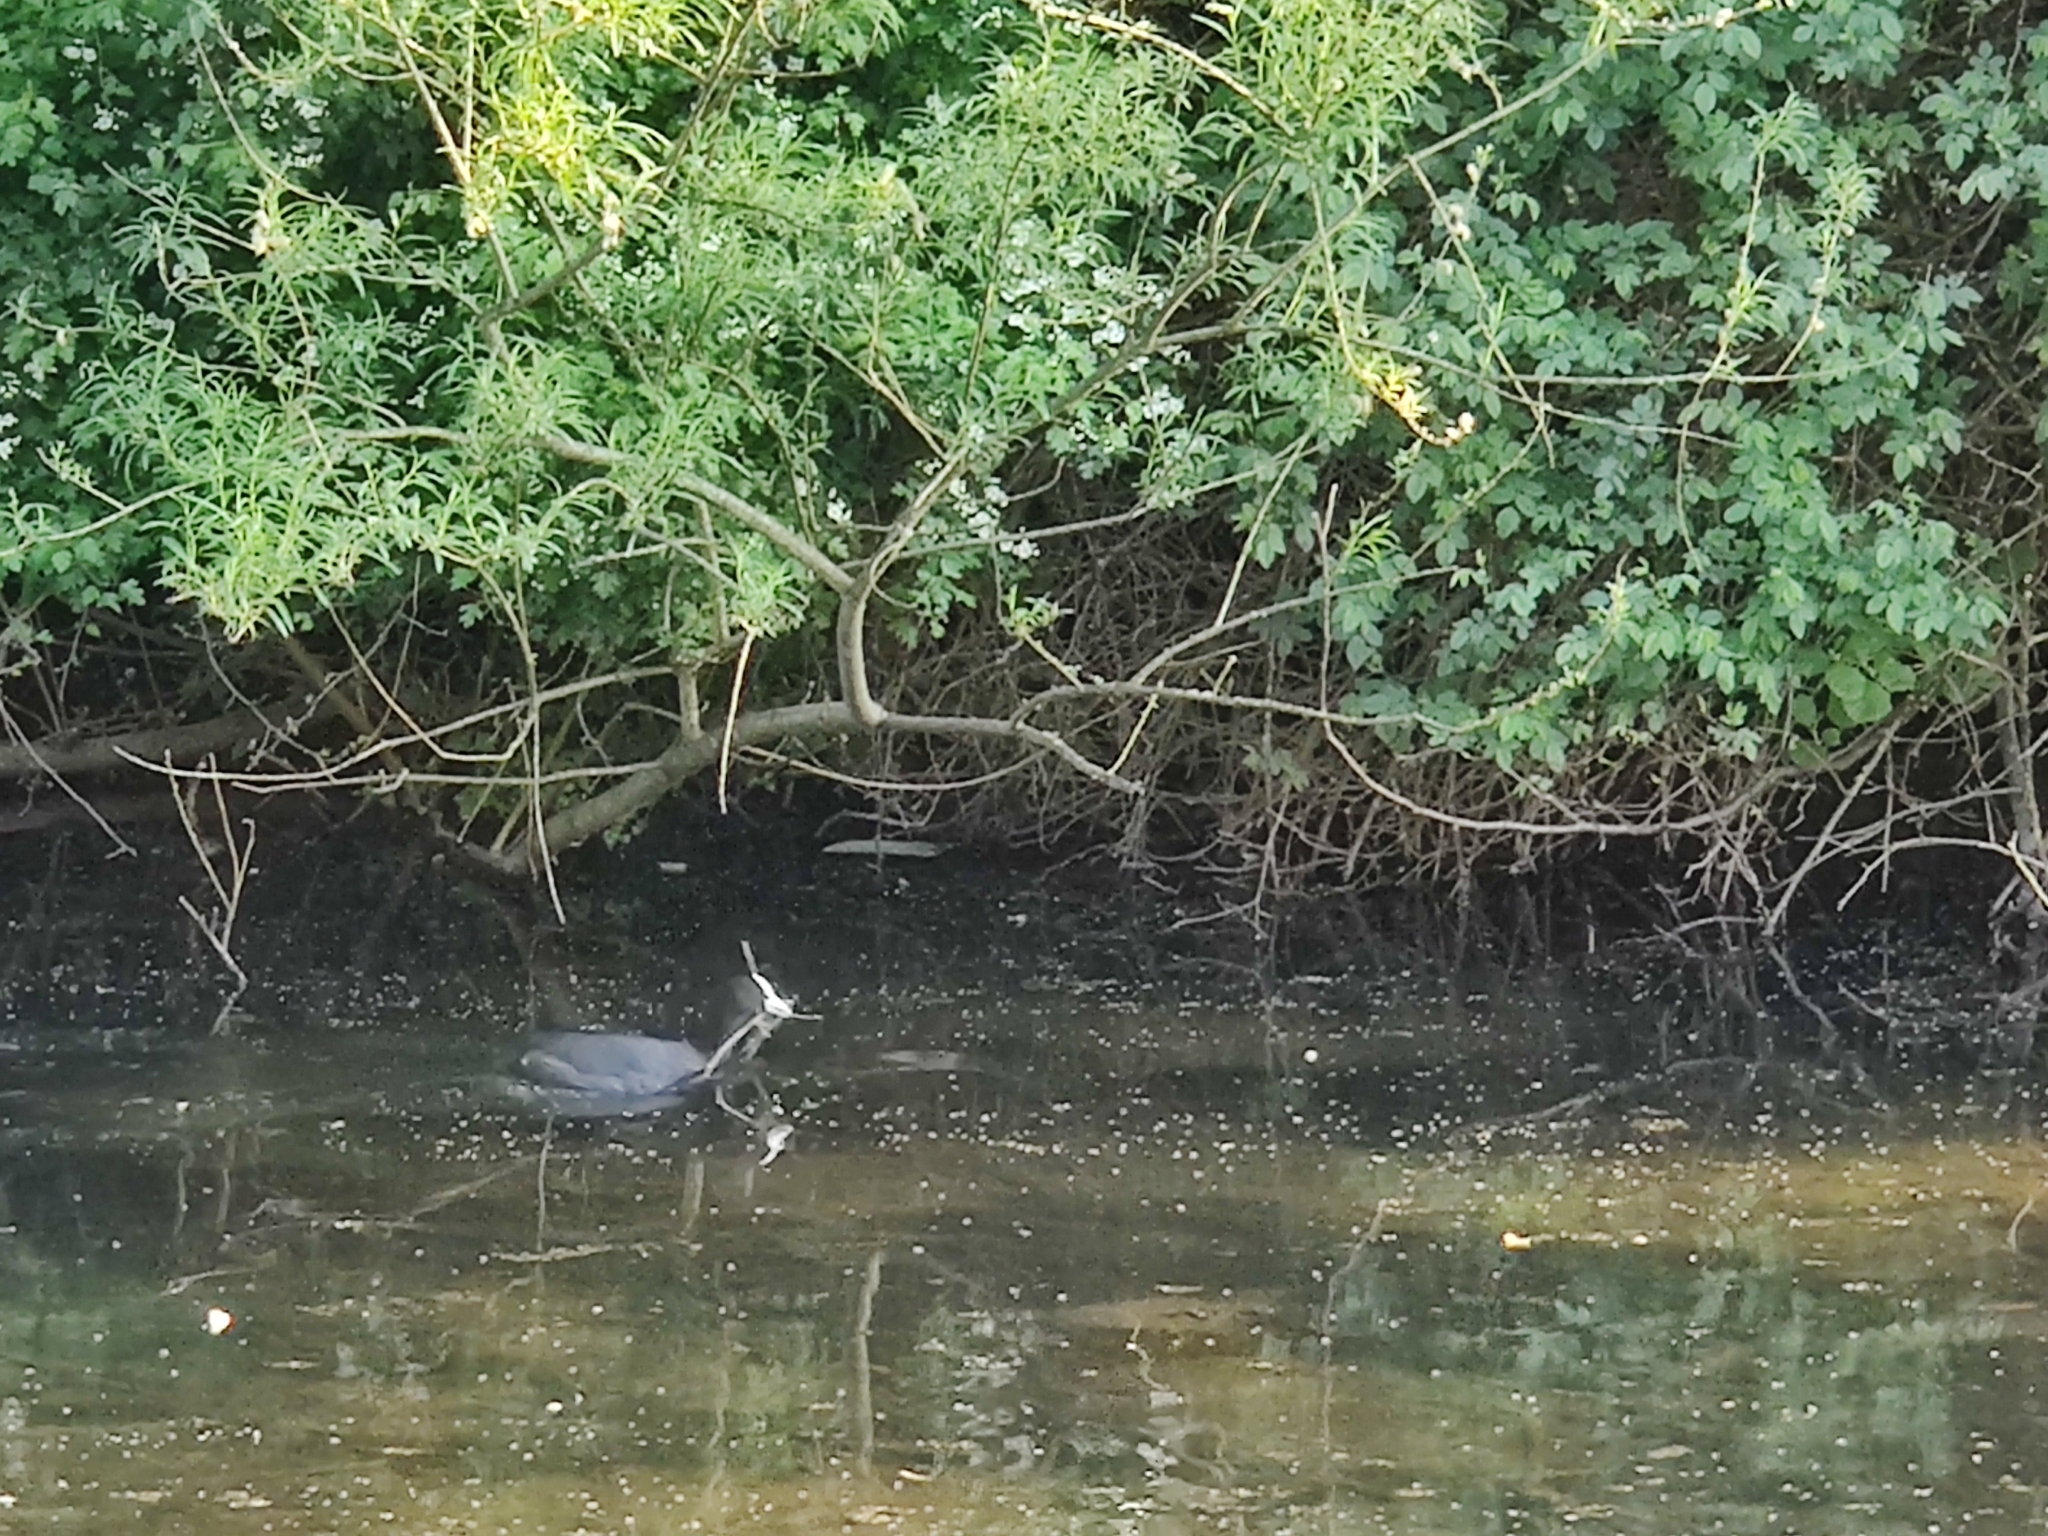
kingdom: Animalia
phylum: Chordata
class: Aves
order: Gruiformes
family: Rallidae
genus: Fulica
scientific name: Fulica atra
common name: Eurasian coot
